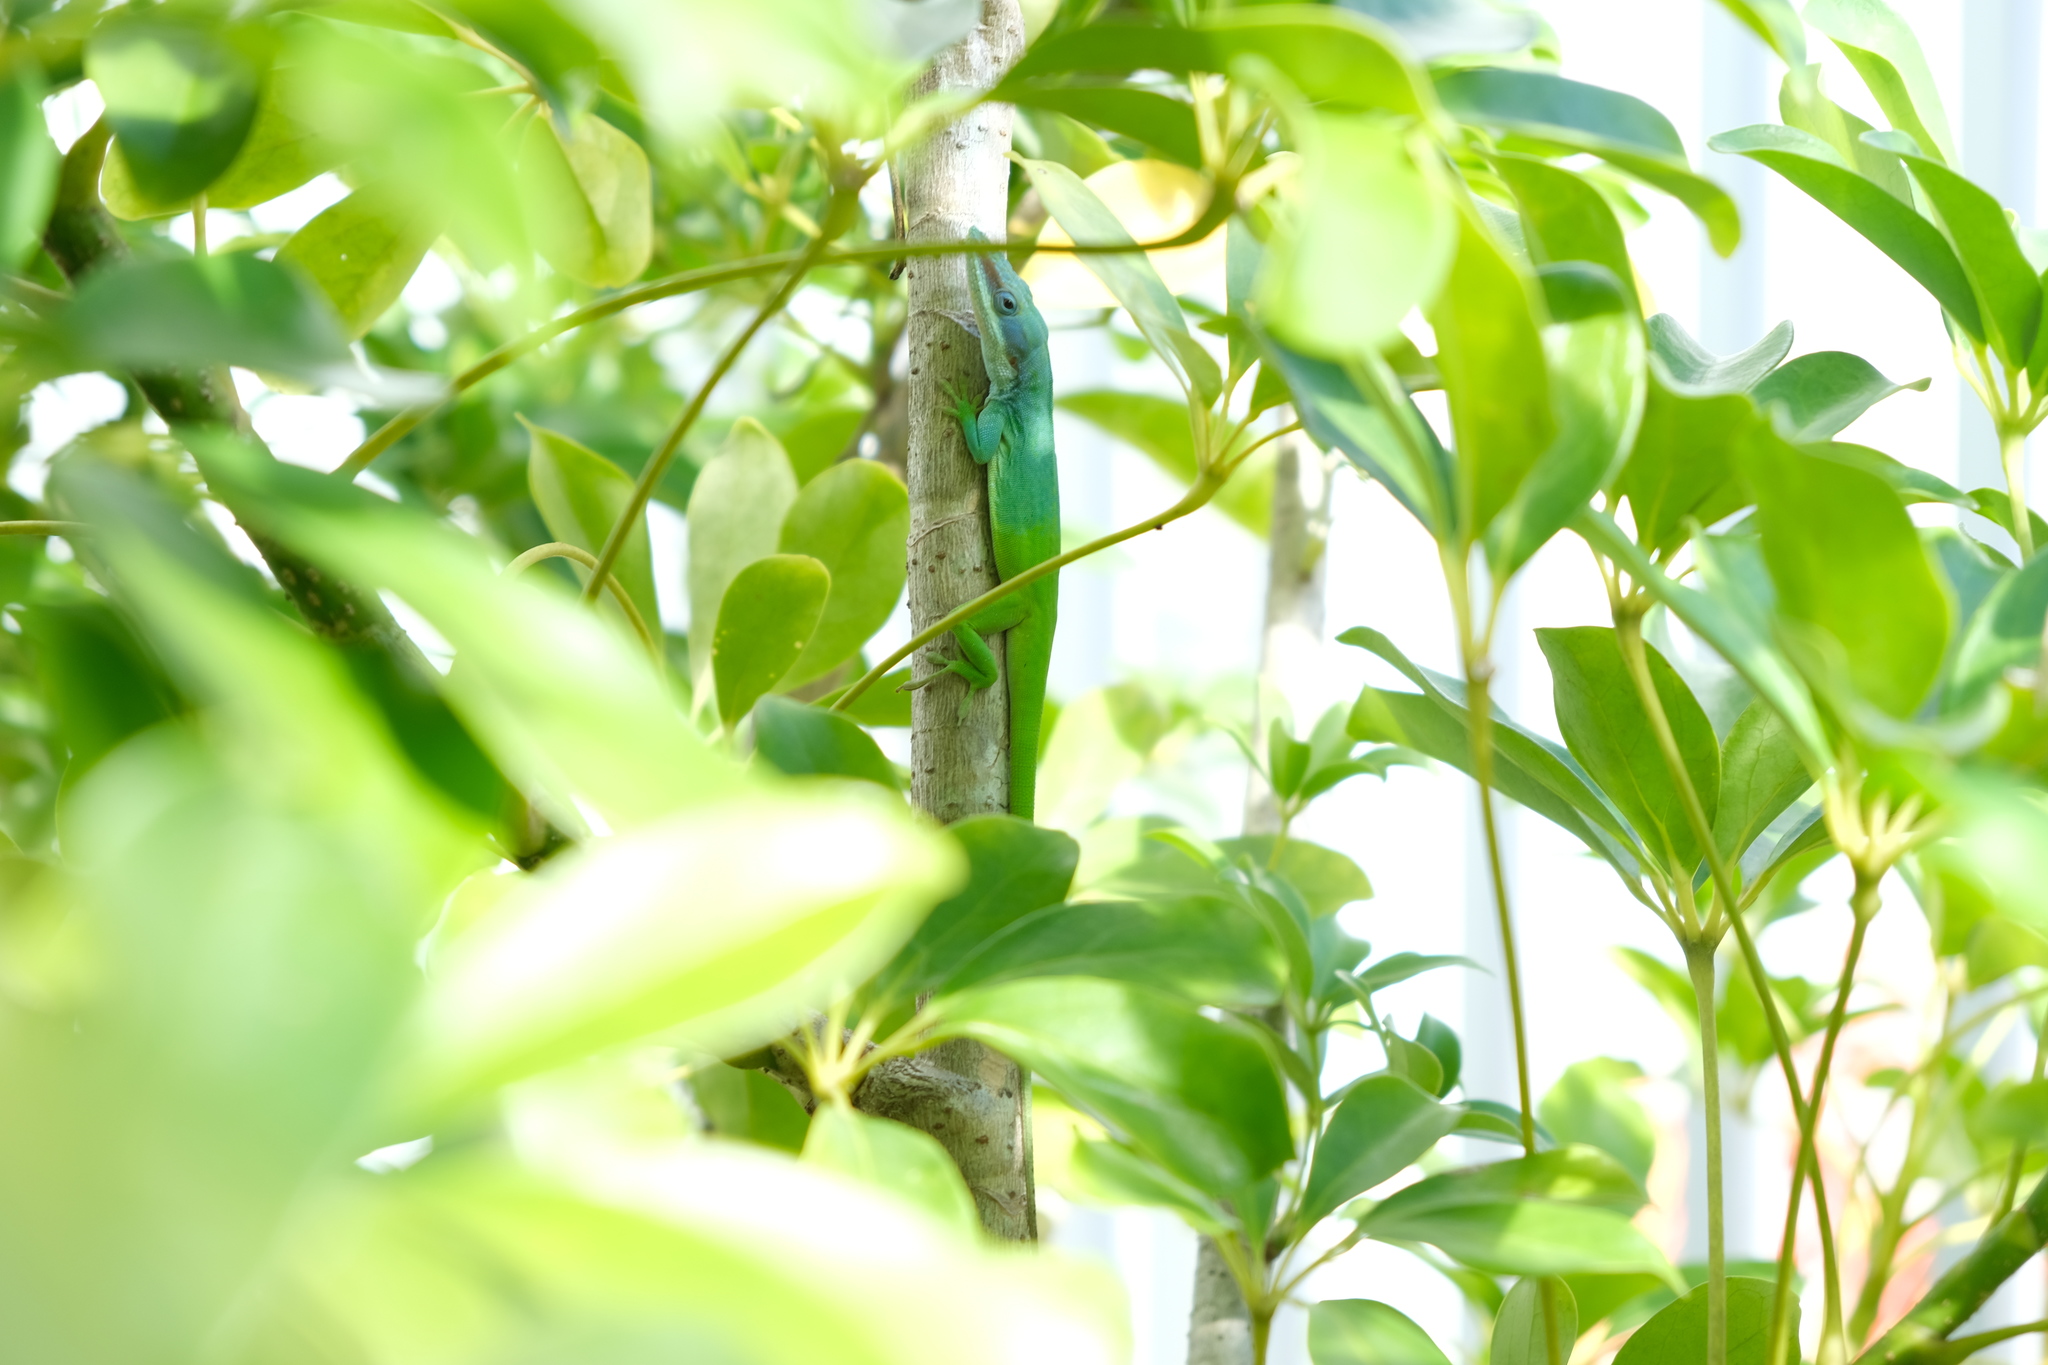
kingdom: Animalia
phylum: Chordata
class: Squamata
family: Dactyloidae
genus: Anolis
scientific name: Anolis allisoni
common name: Allison's anole
